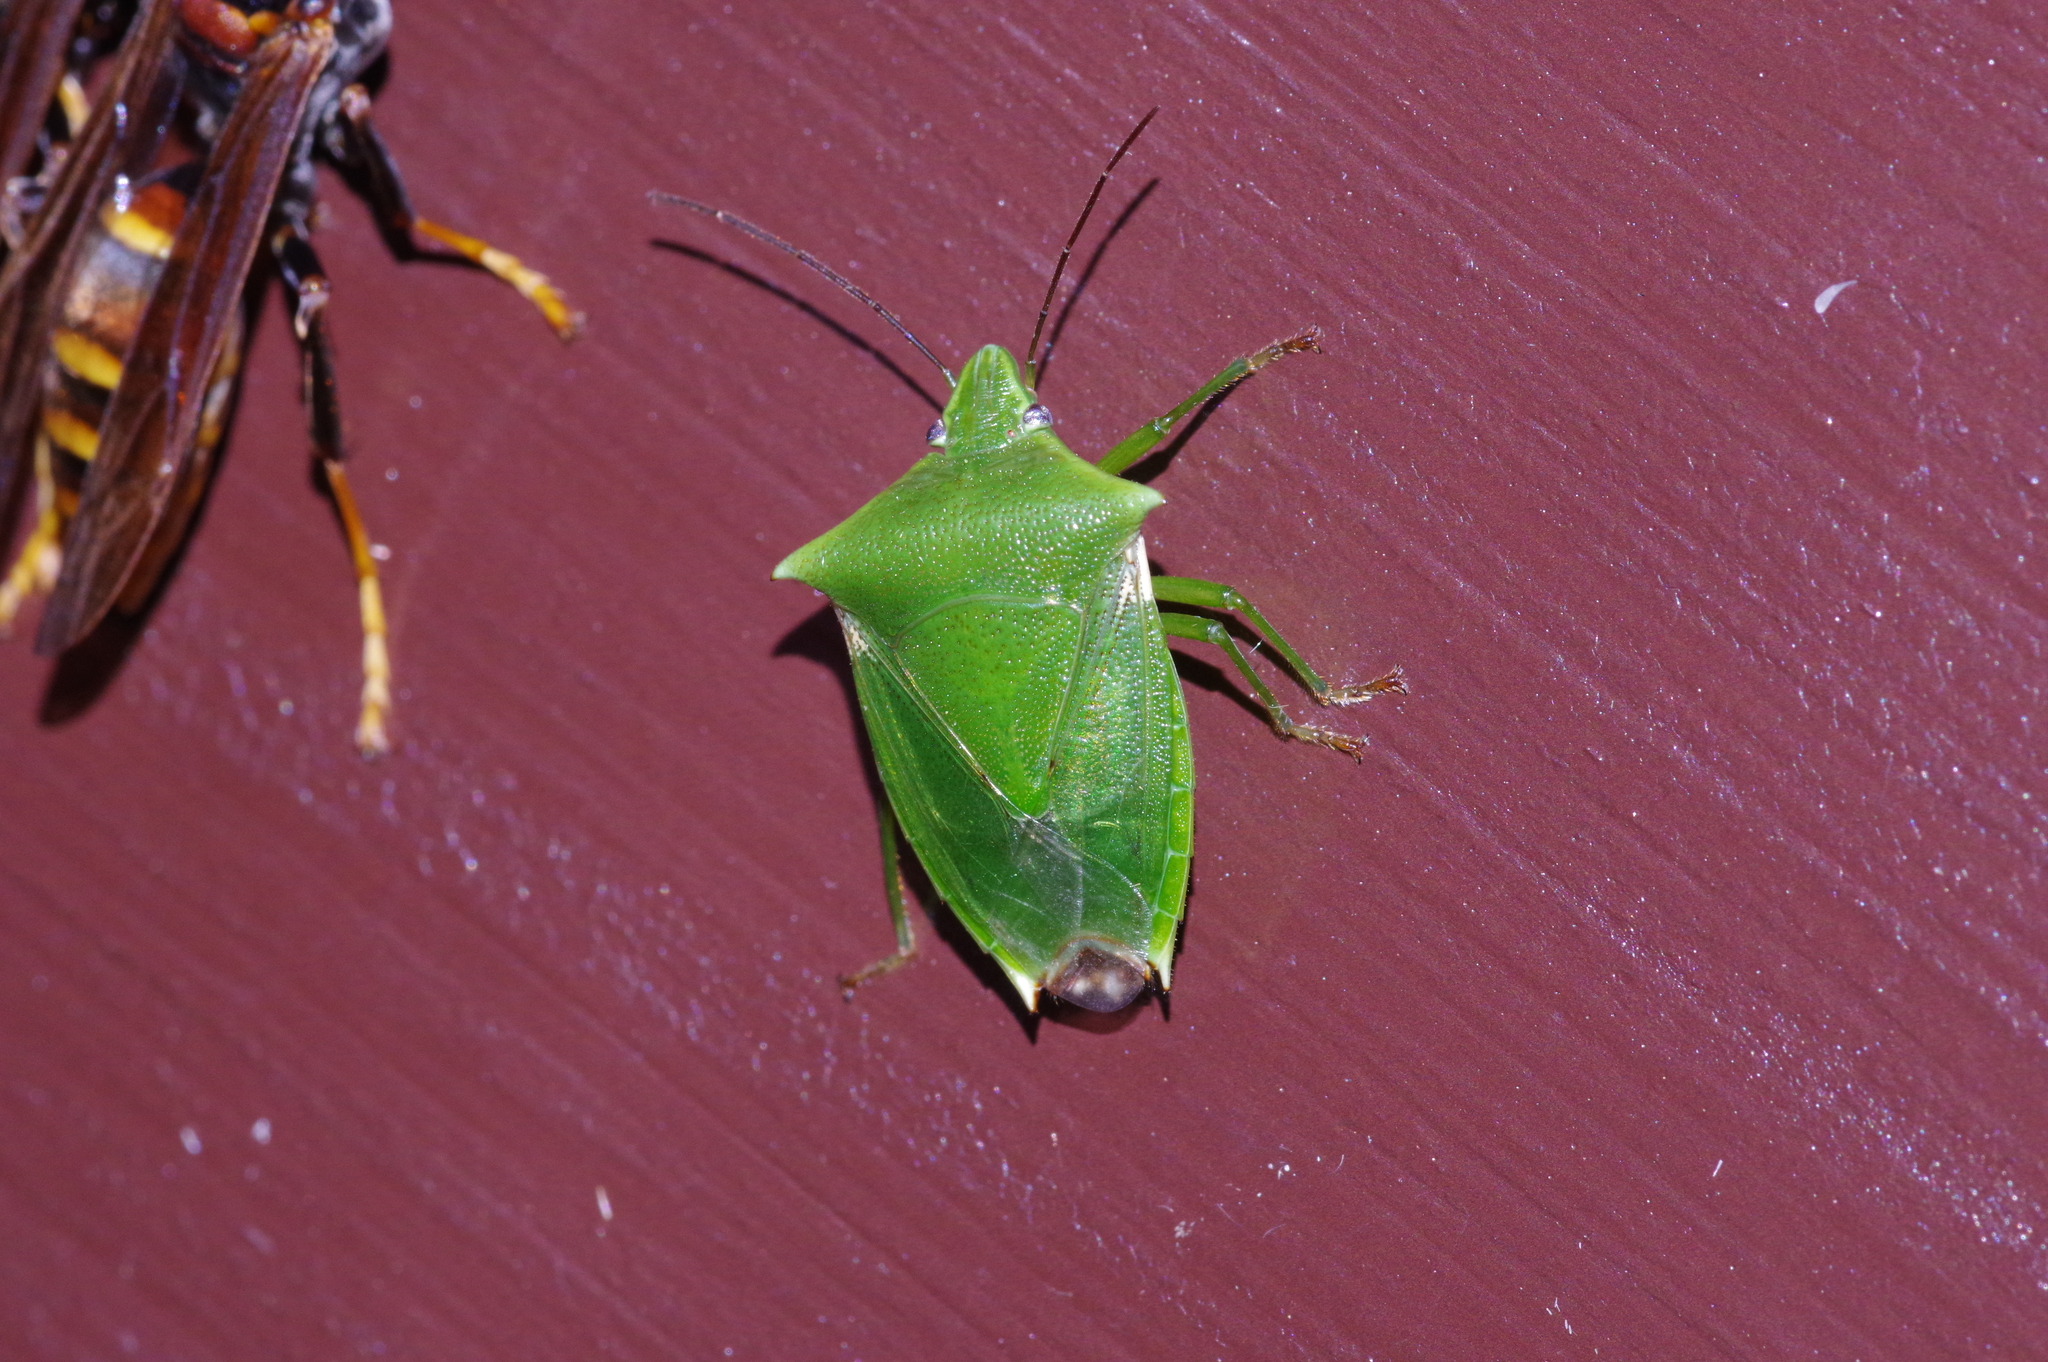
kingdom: Animalia
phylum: Arthropoda
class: Insecta
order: Hemiptera
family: Pentatomidae
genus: Vitellus
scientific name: Vitellus
